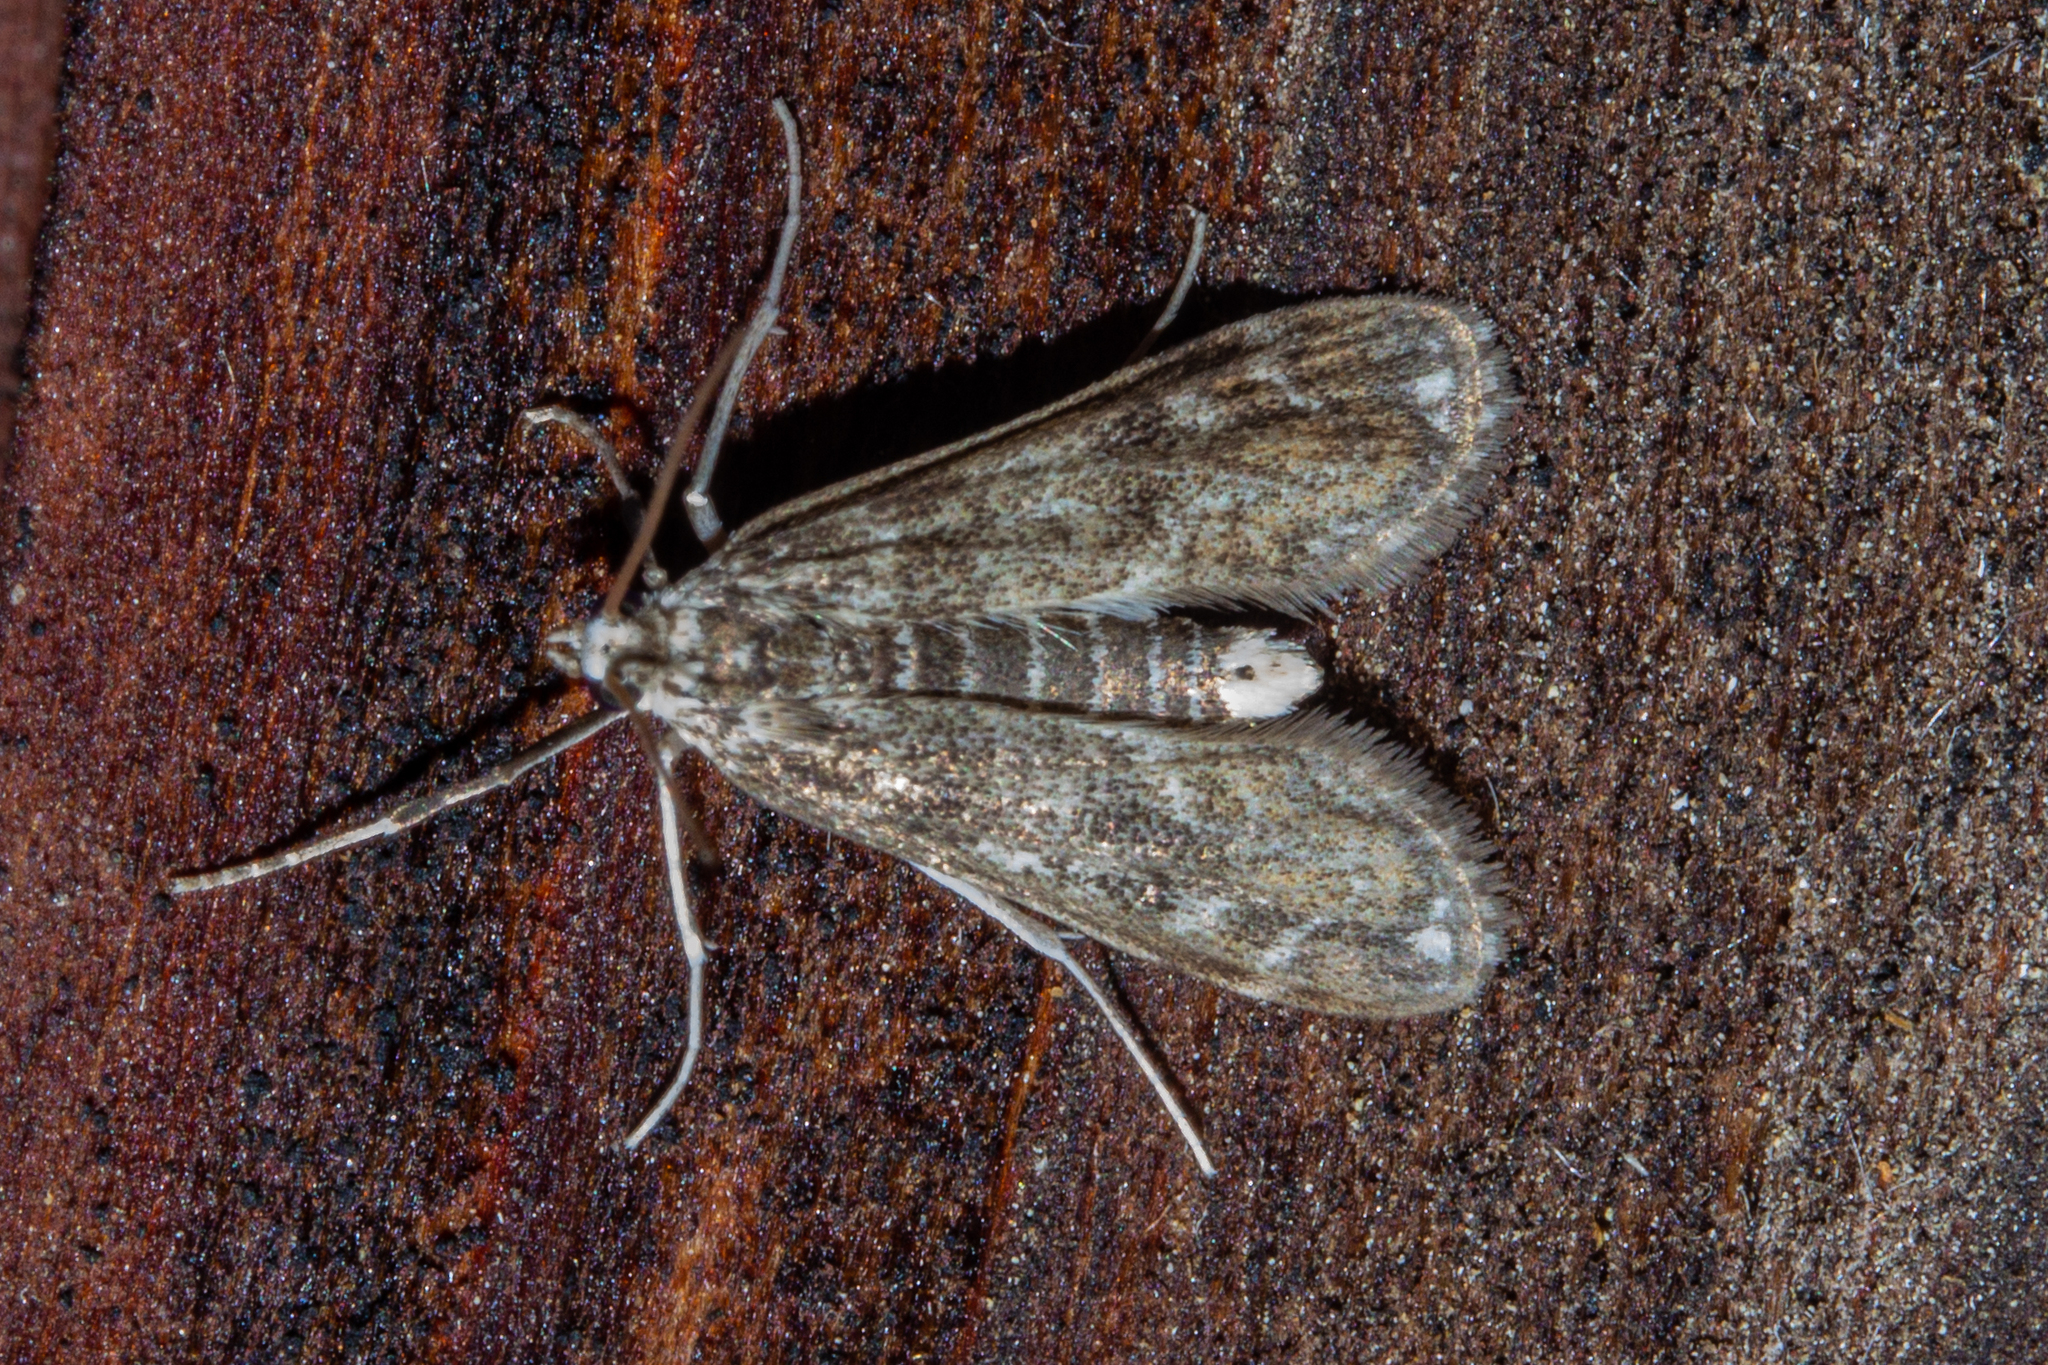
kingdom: Animalia
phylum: Arthropoda
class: Insecta
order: Lepidoptera
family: Crambidae
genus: Hygraula
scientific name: Hygraula nitens
